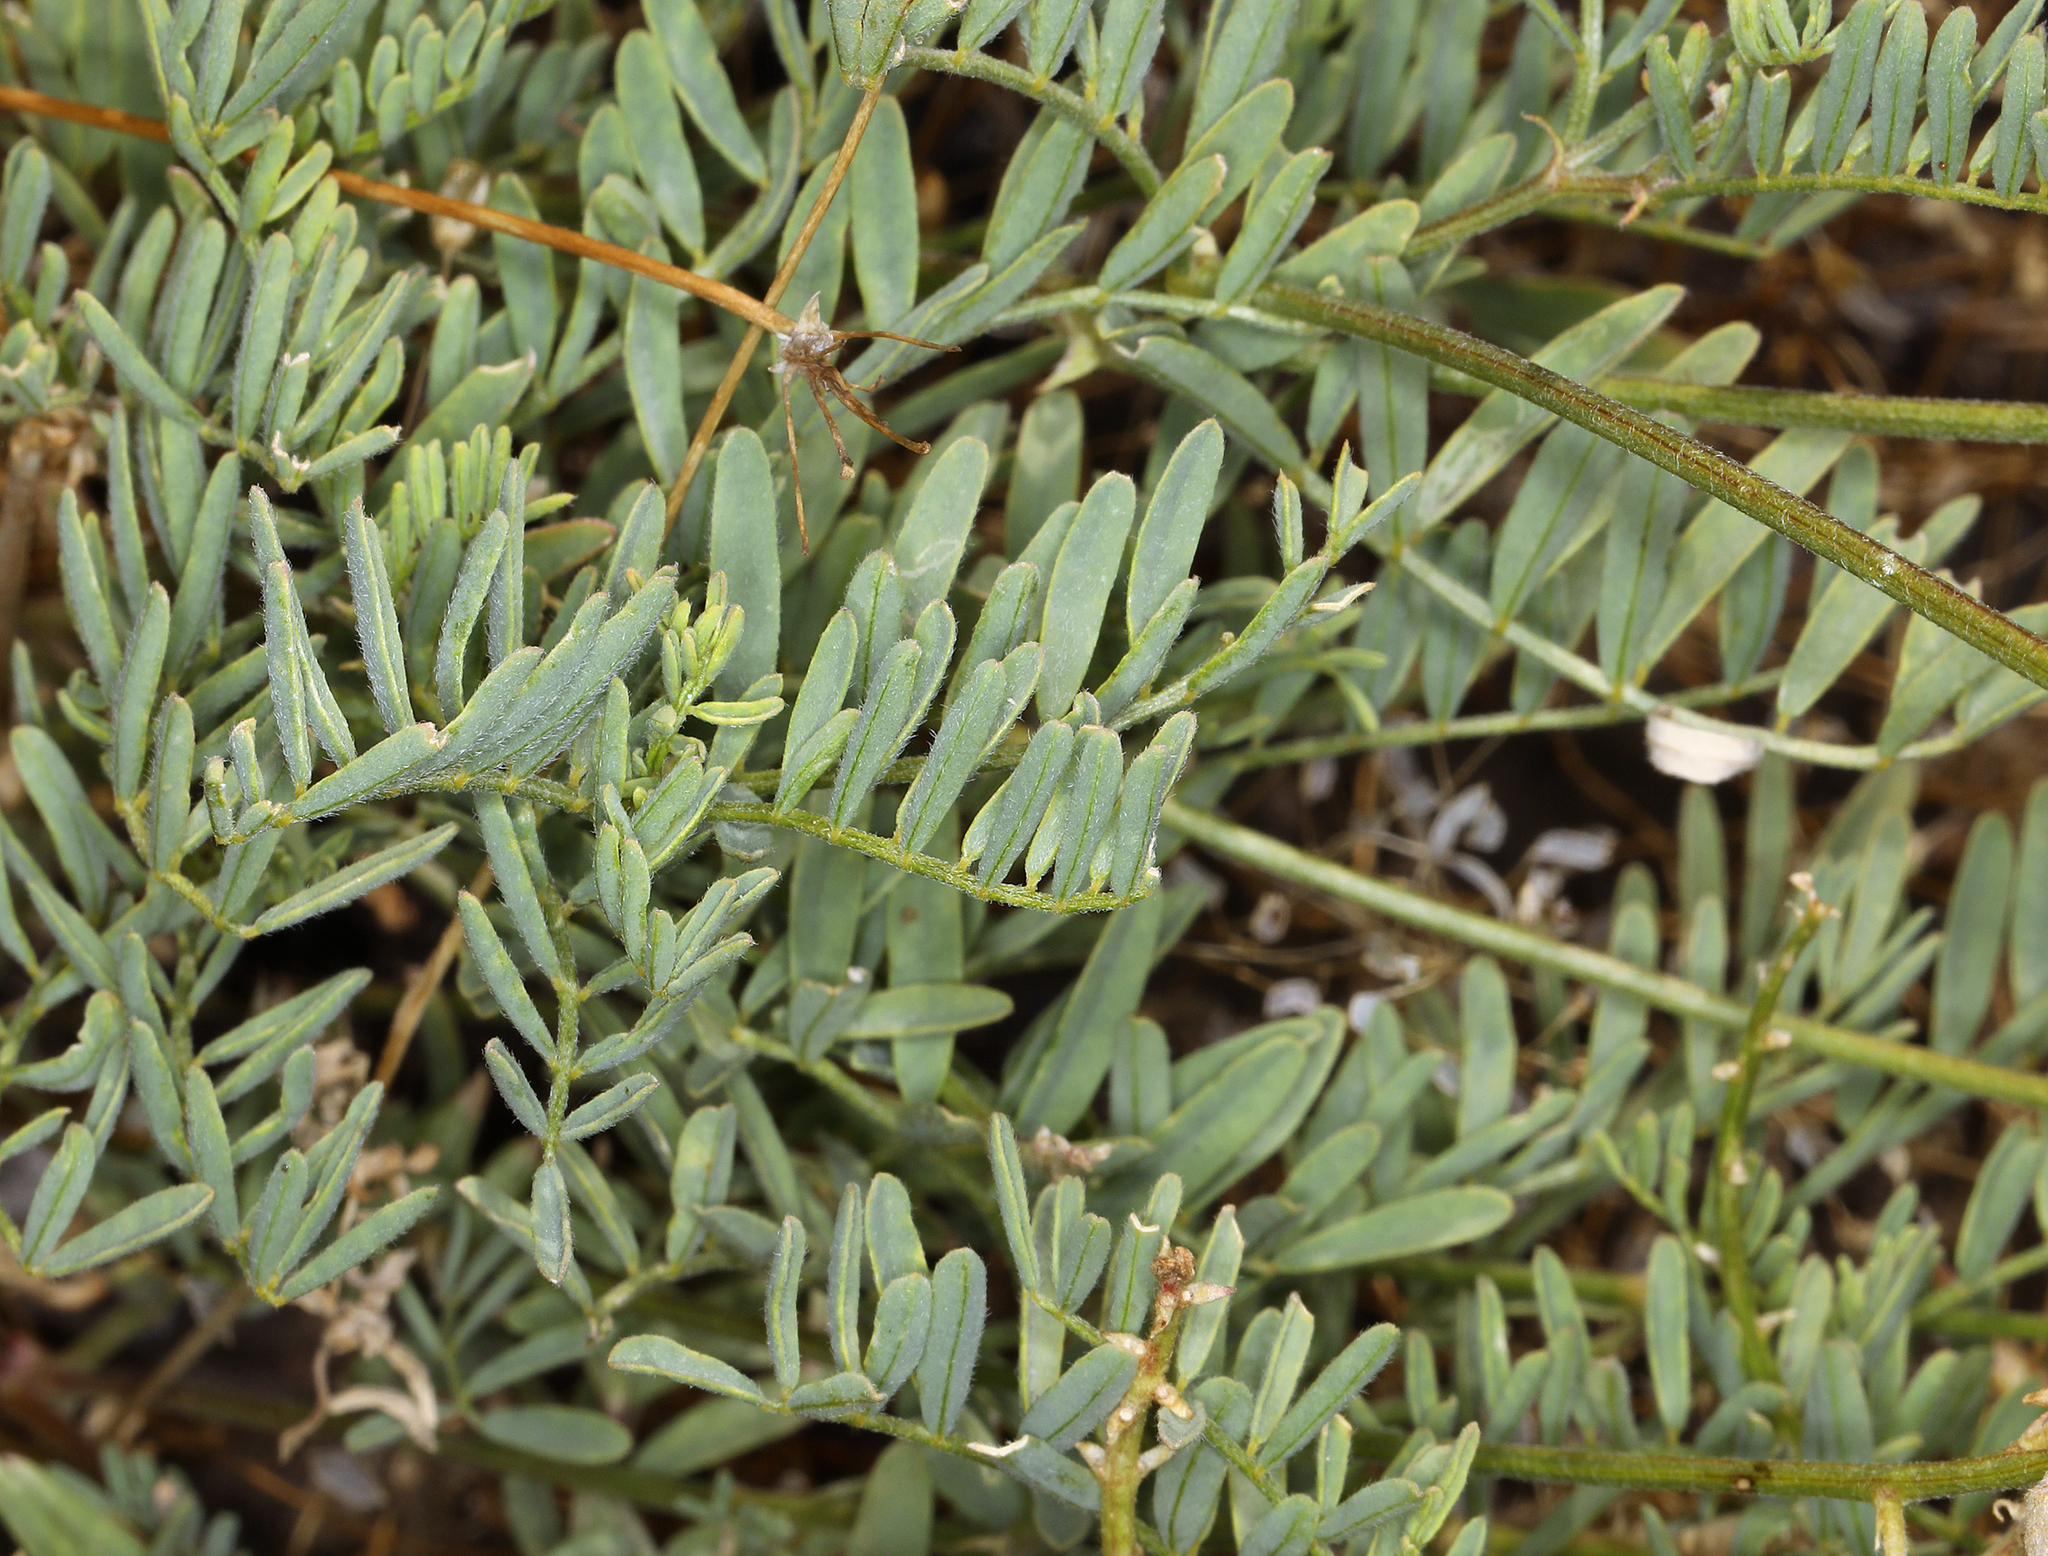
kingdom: Plantae
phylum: Tracheophyta
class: Magnoliopsida
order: Fabales
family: Fabaceae
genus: Astragalus
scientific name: Astragalus californicus
